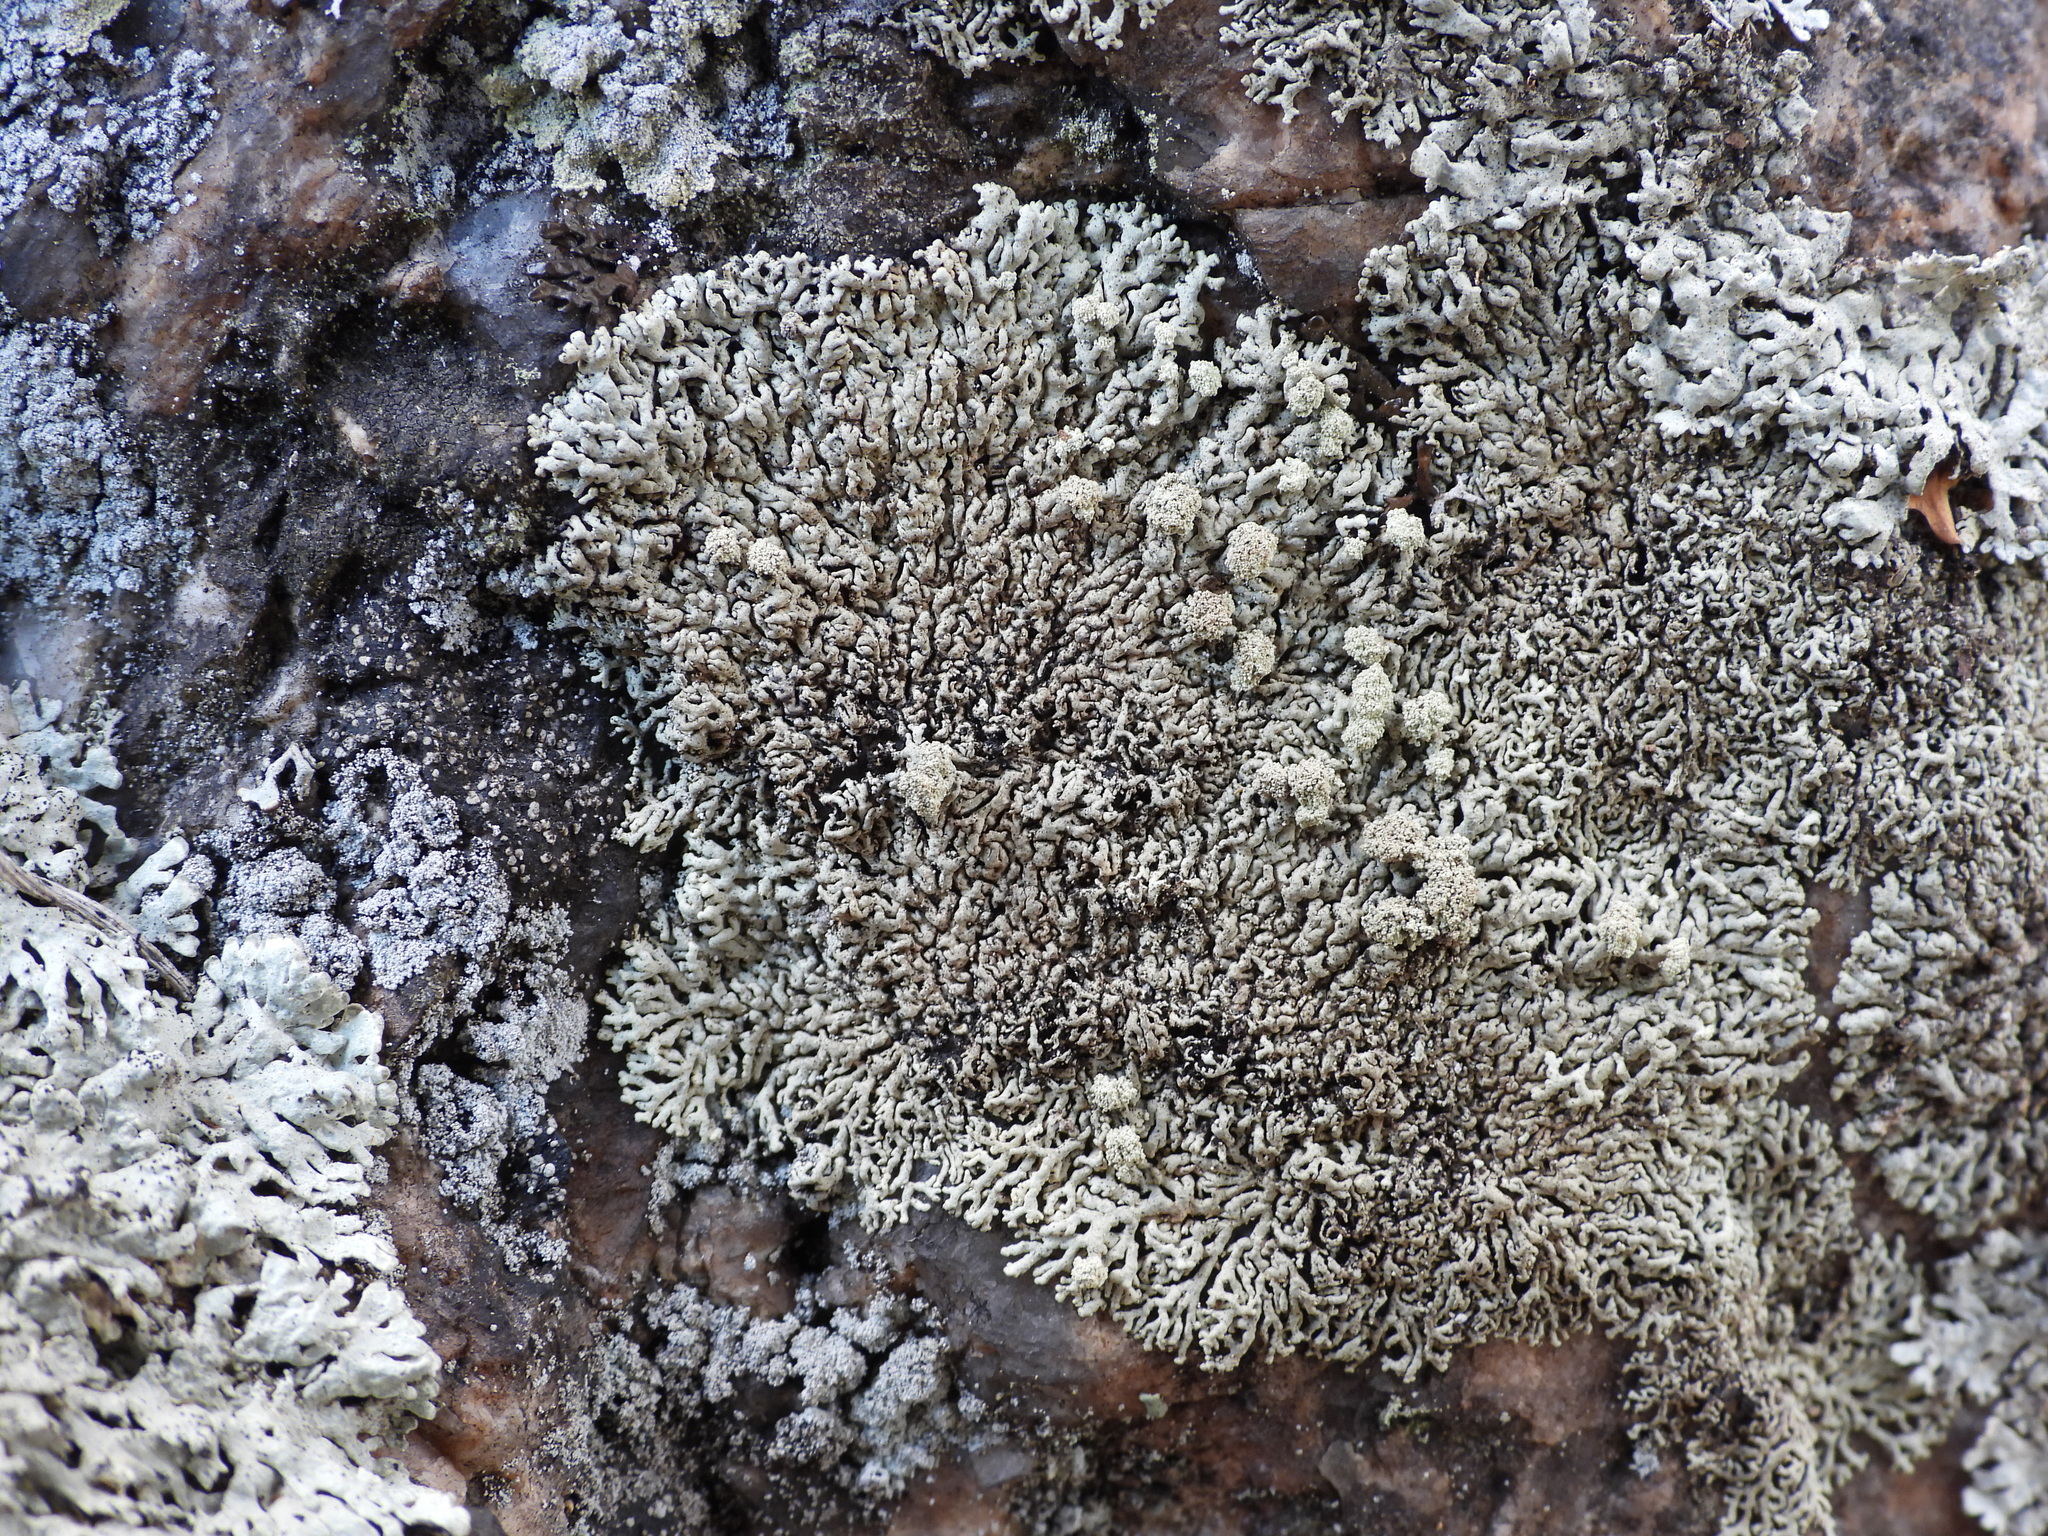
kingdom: Fungi
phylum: Ascomycota
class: Lecanoromycetes
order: Lecanorales
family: Parmeliaceae
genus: Arctoparmelia
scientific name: Arctoparmelia incurva
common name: Bent ring lichen
